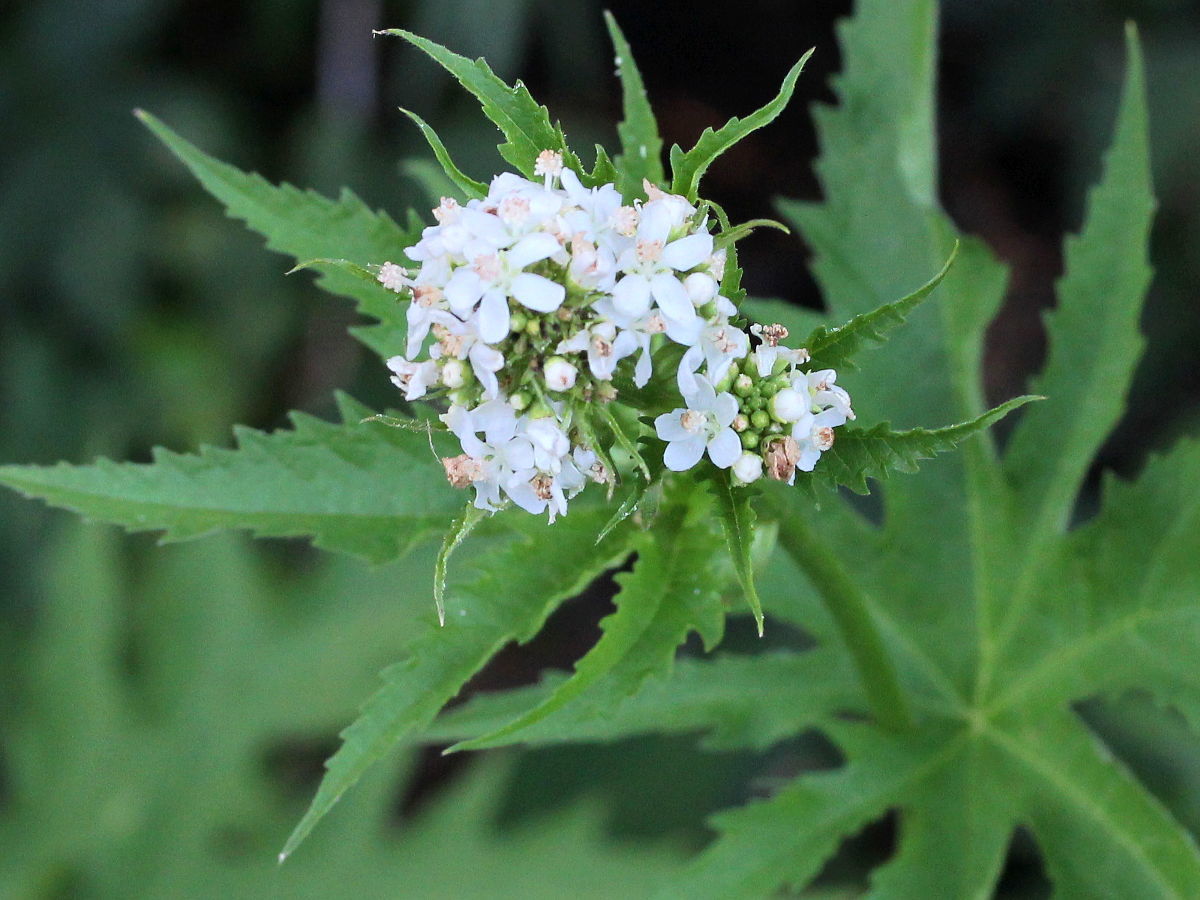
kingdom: Plantae
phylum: Tracheophyta
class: Magnoliopsida
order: Malvales
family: Malvaceae
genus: Napaea
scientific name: Napaea dioica
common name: Glade-mallow
